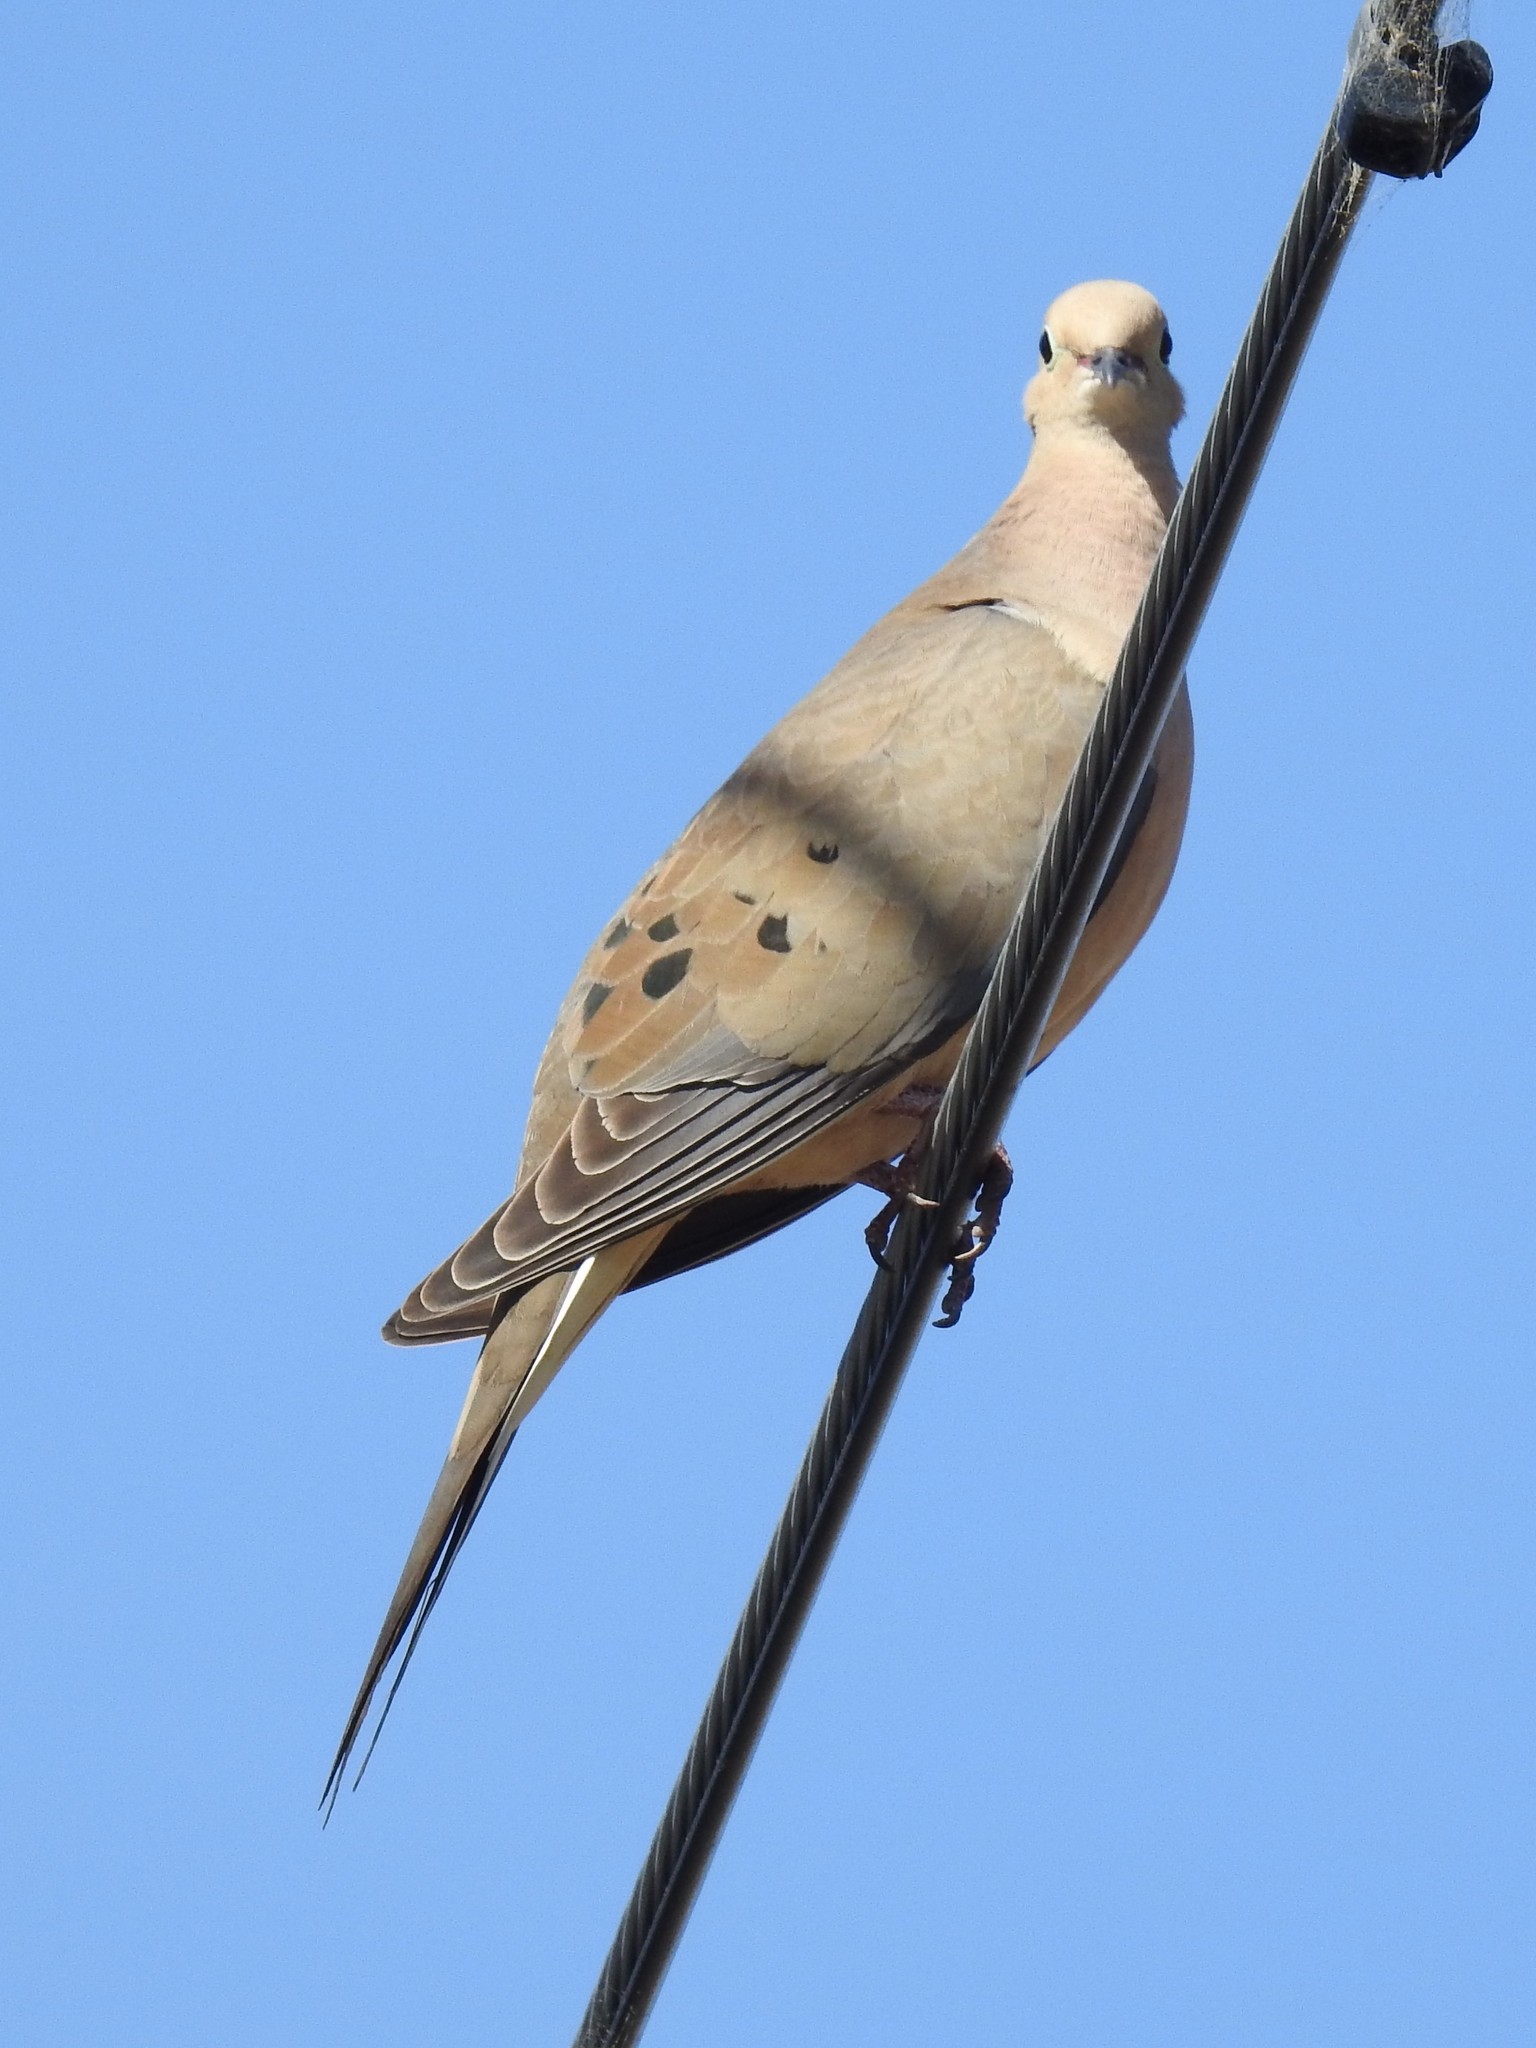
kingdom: Animalia
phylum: Chordata
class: Aves
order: Columbiformes
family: Columbidae
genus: Zenaida
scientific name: Zenaida macroura
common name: Mourning dove
